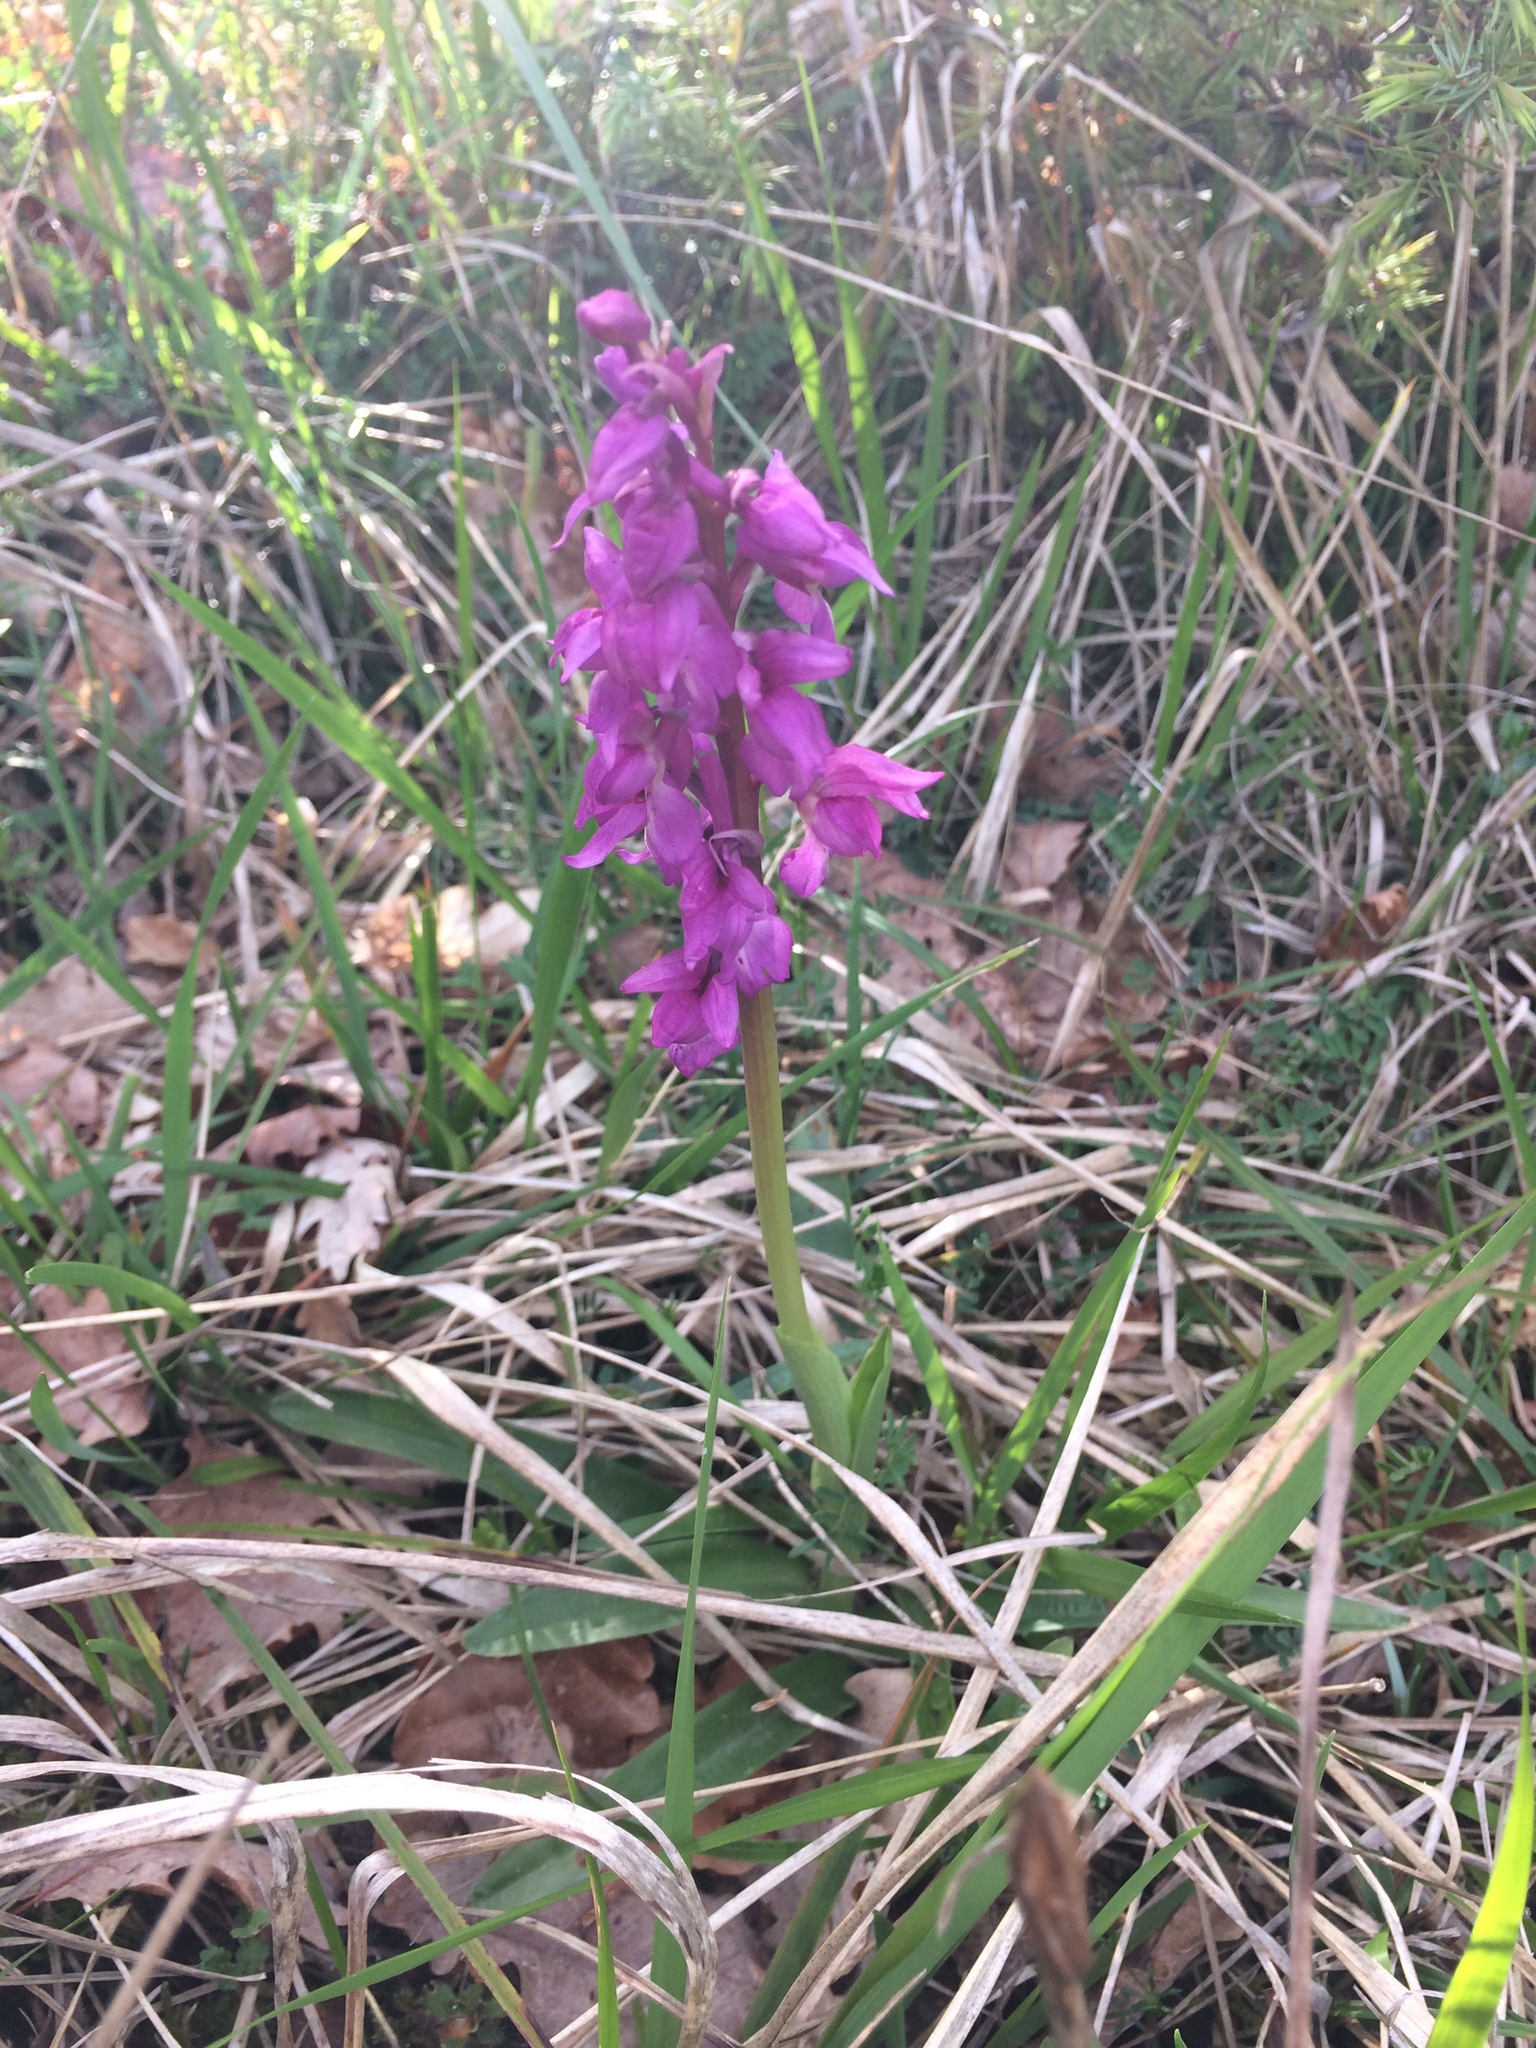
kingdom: Plantae
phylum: Tracheophyta
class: Liliopsida
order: Asparagales
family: Orchidaceae
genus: Orchis
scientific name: Orchis mascula
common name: Early-purple orchid
